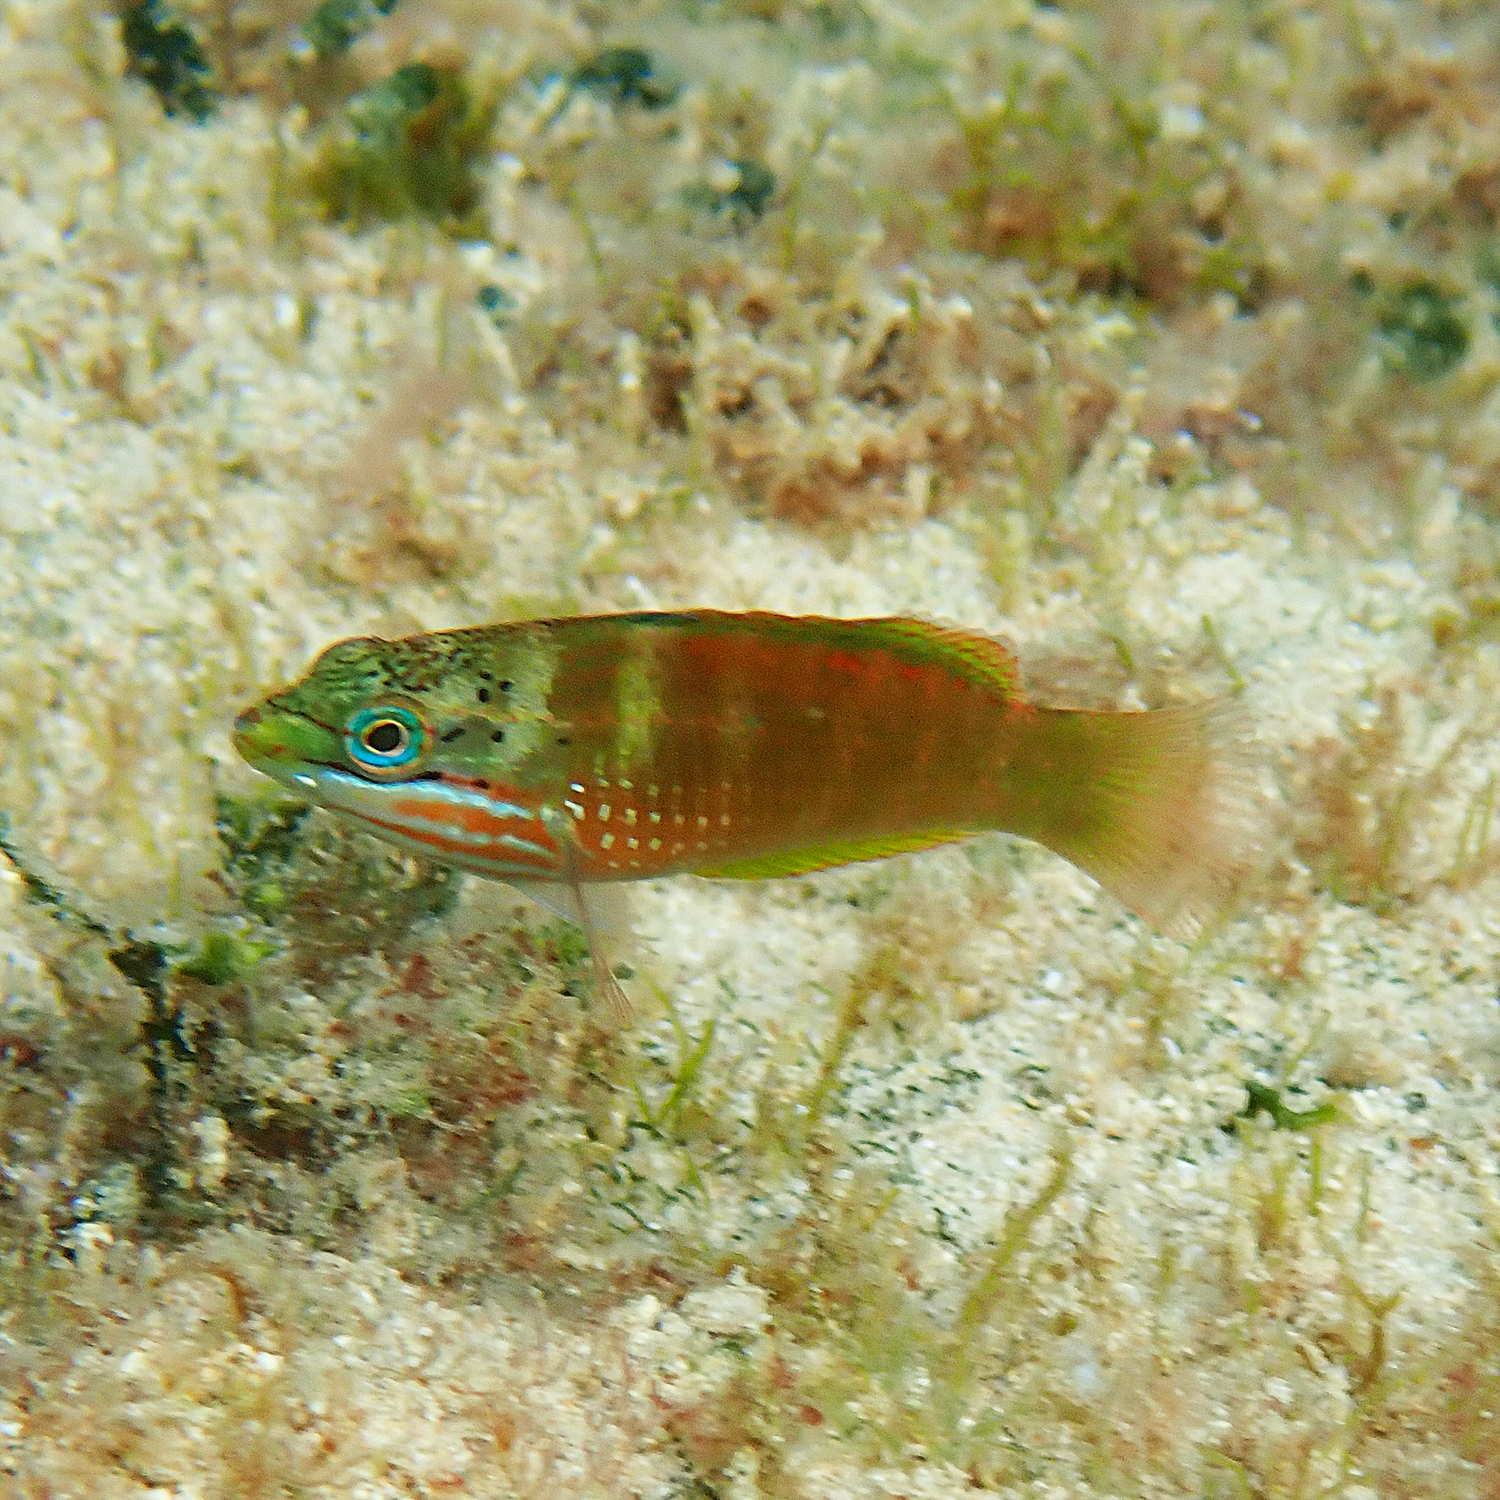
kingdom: Animalia
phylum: Chordata
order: Perciformes
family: Labridae
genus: Pseudolabrus
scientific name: Pseudolabrus luculentus
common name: Luculentus wrasse
